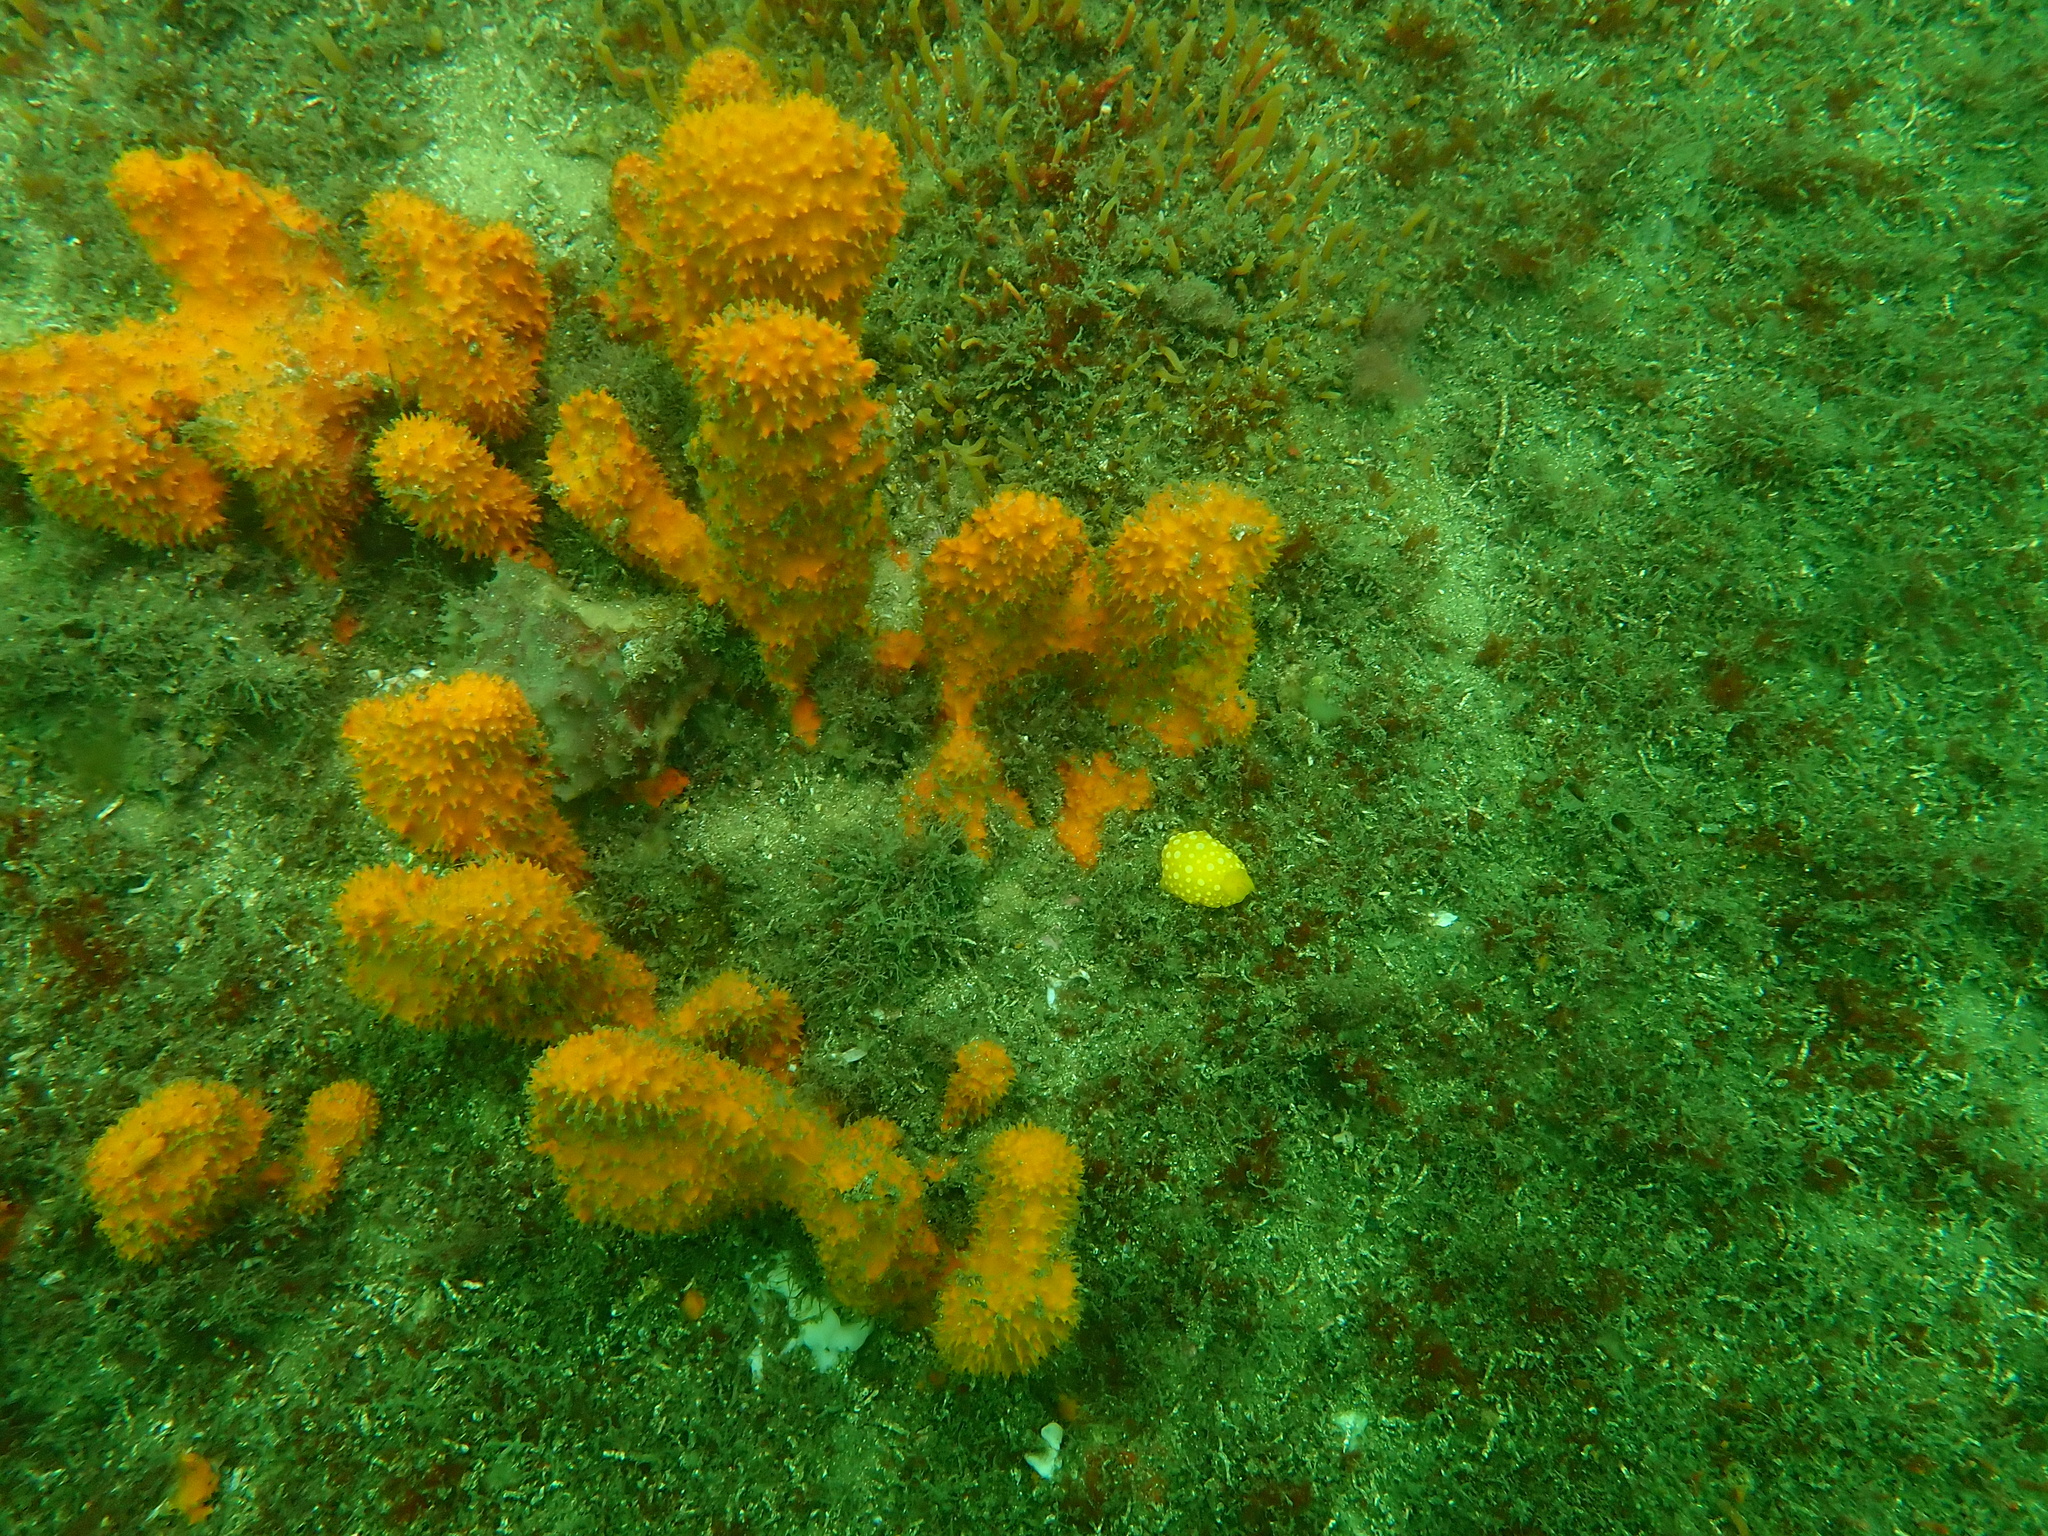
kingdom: Animalia
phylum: Mollusca
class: Gastropoda
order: Nudibranchia
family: Dorididae
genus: Doris
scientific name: Doris chrysoderma
